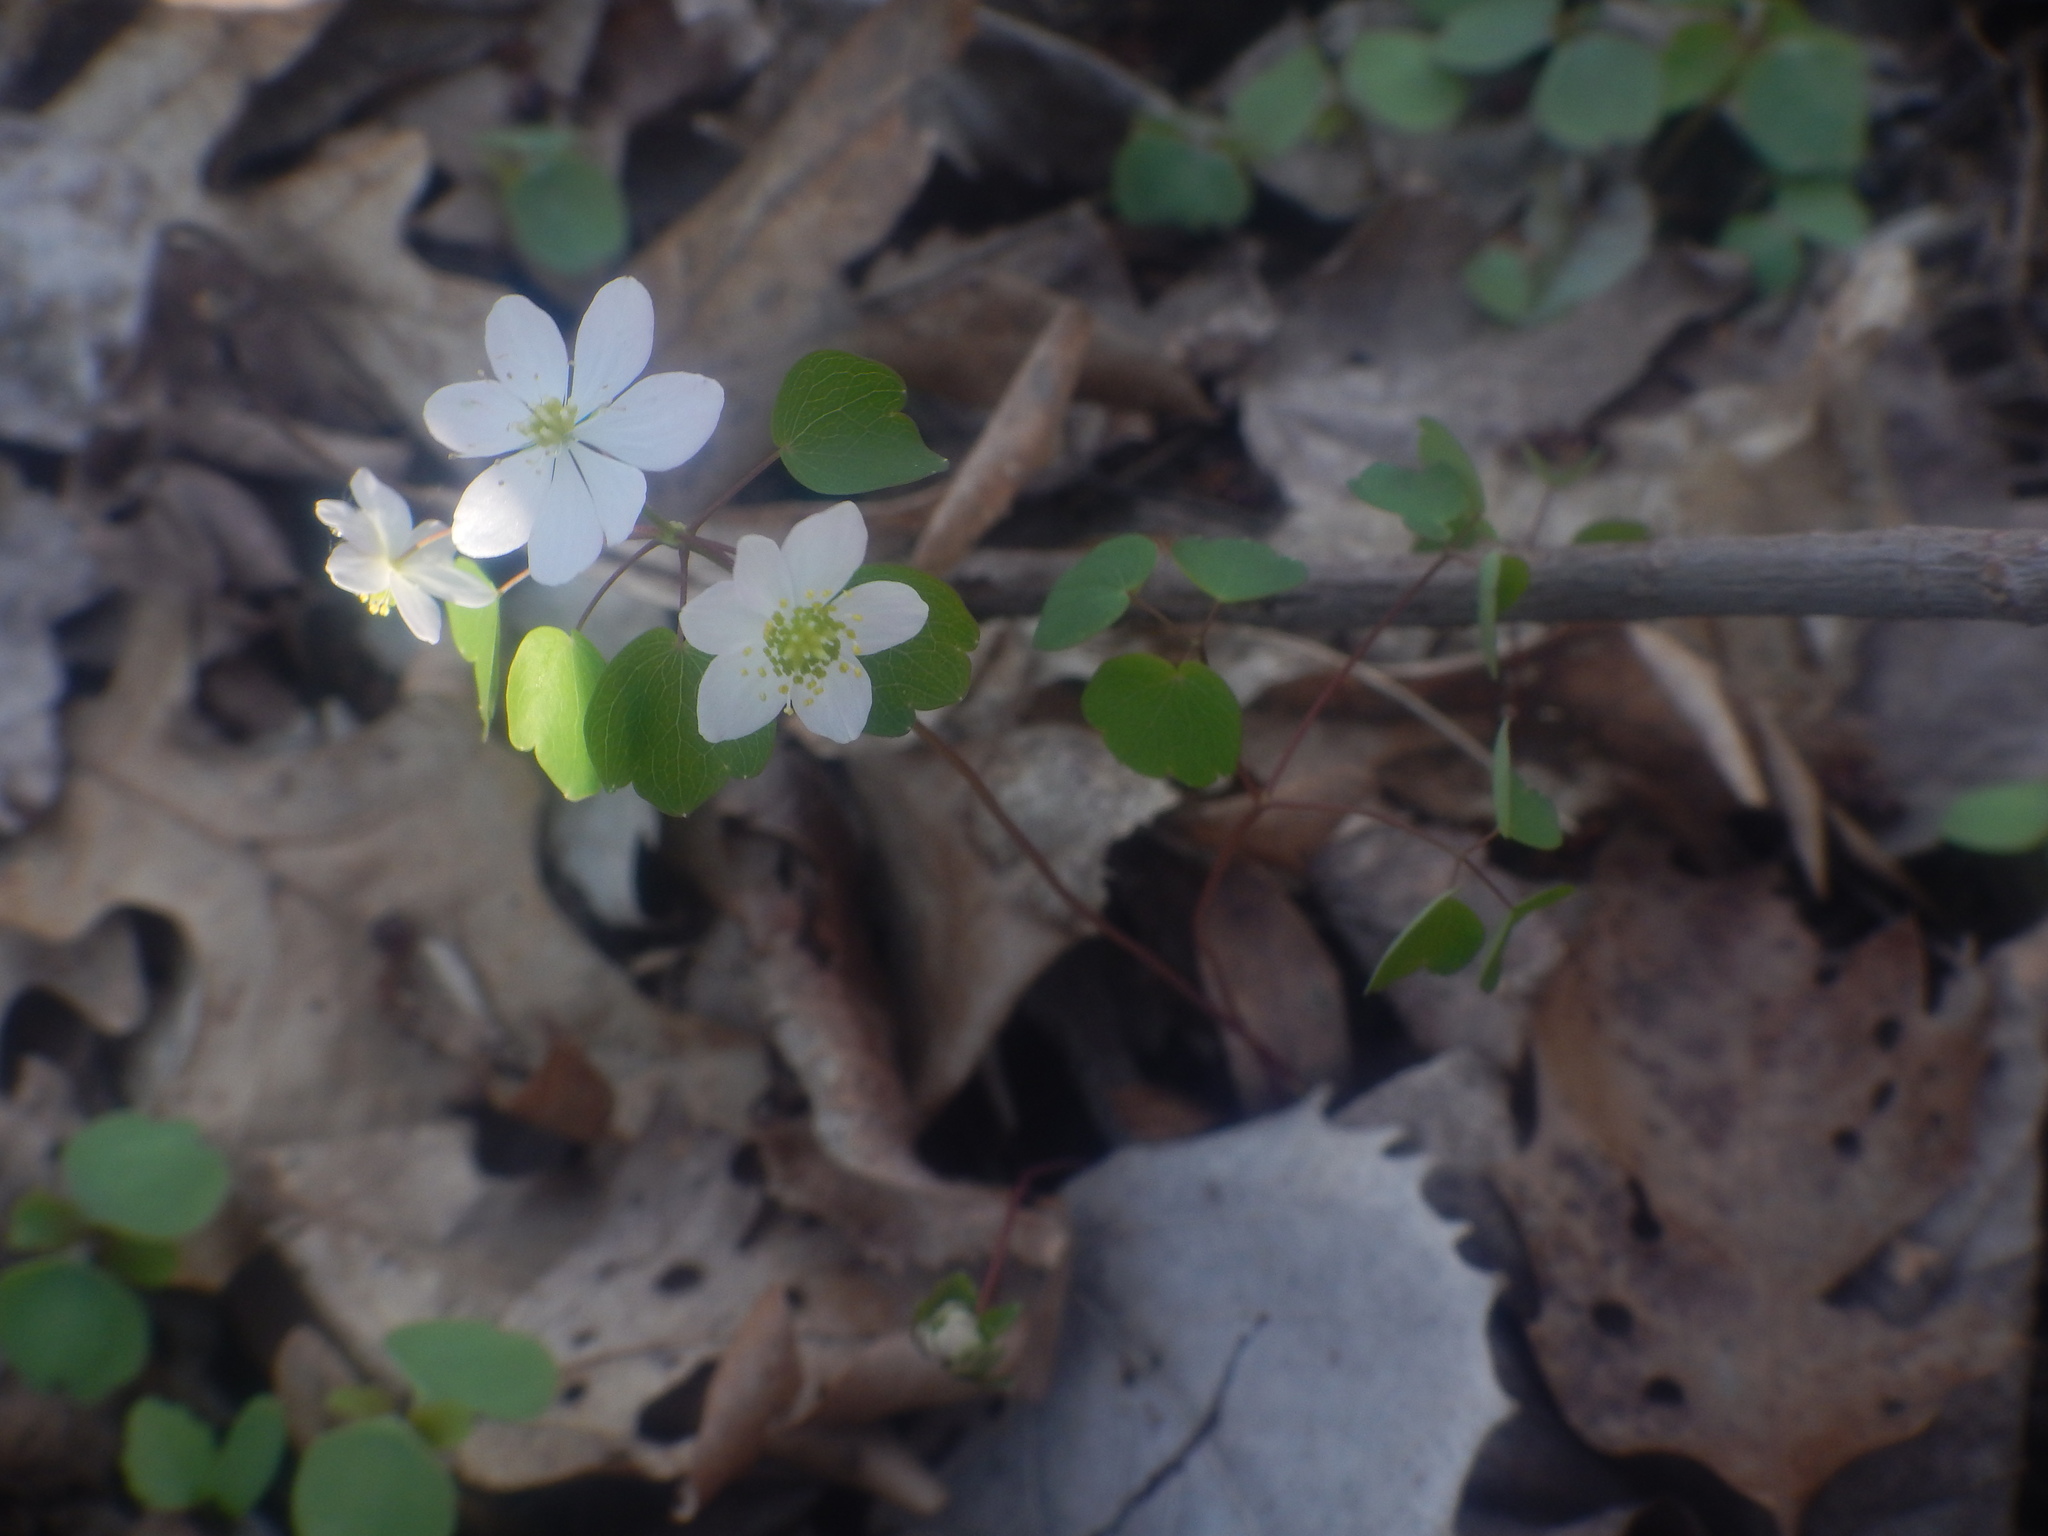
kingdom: Plantae
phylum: Tracheophyta
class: Magnoliopsida
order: Ranunculales
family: Ranunculaceae
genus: Thalictrum
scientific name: Thalictrum thalictroides
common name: Rue-anemone
